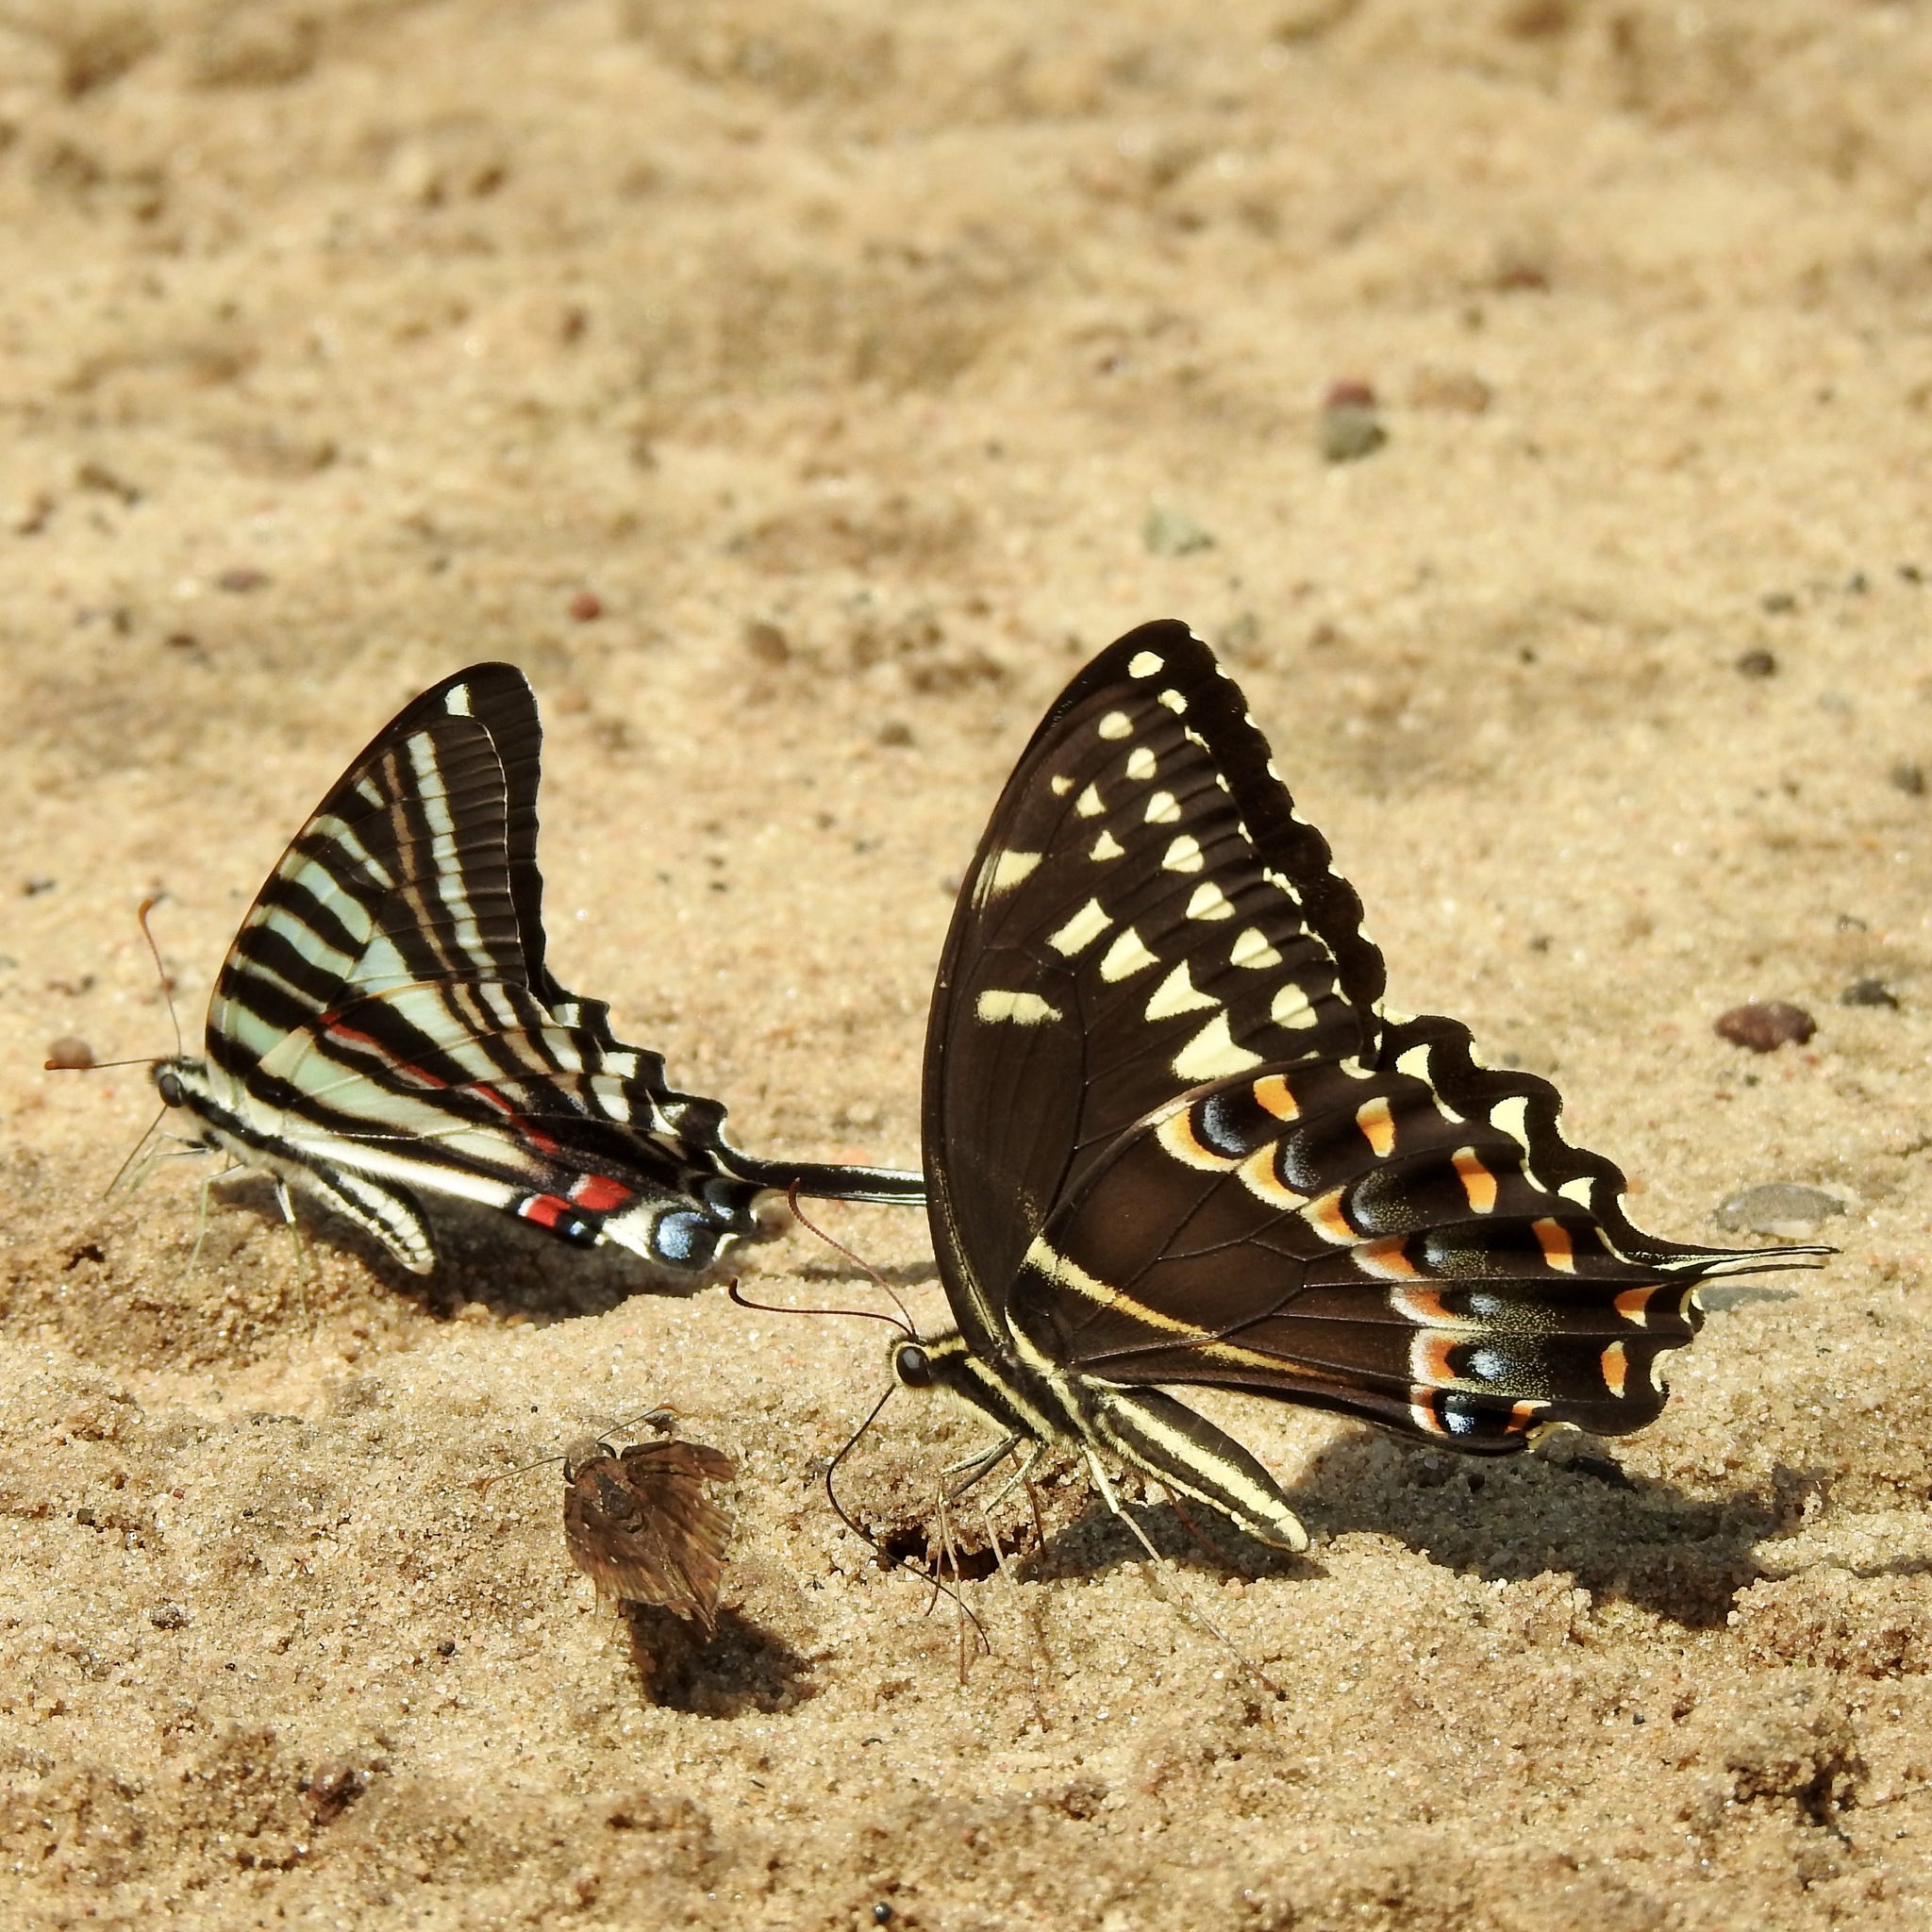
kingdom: Animalia
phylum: Arthropoda
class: Insecta
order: Lepidoptera
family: Papilionidae
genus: Papilio
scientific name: Papilio palamedes
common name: Palamedes swallowtail
